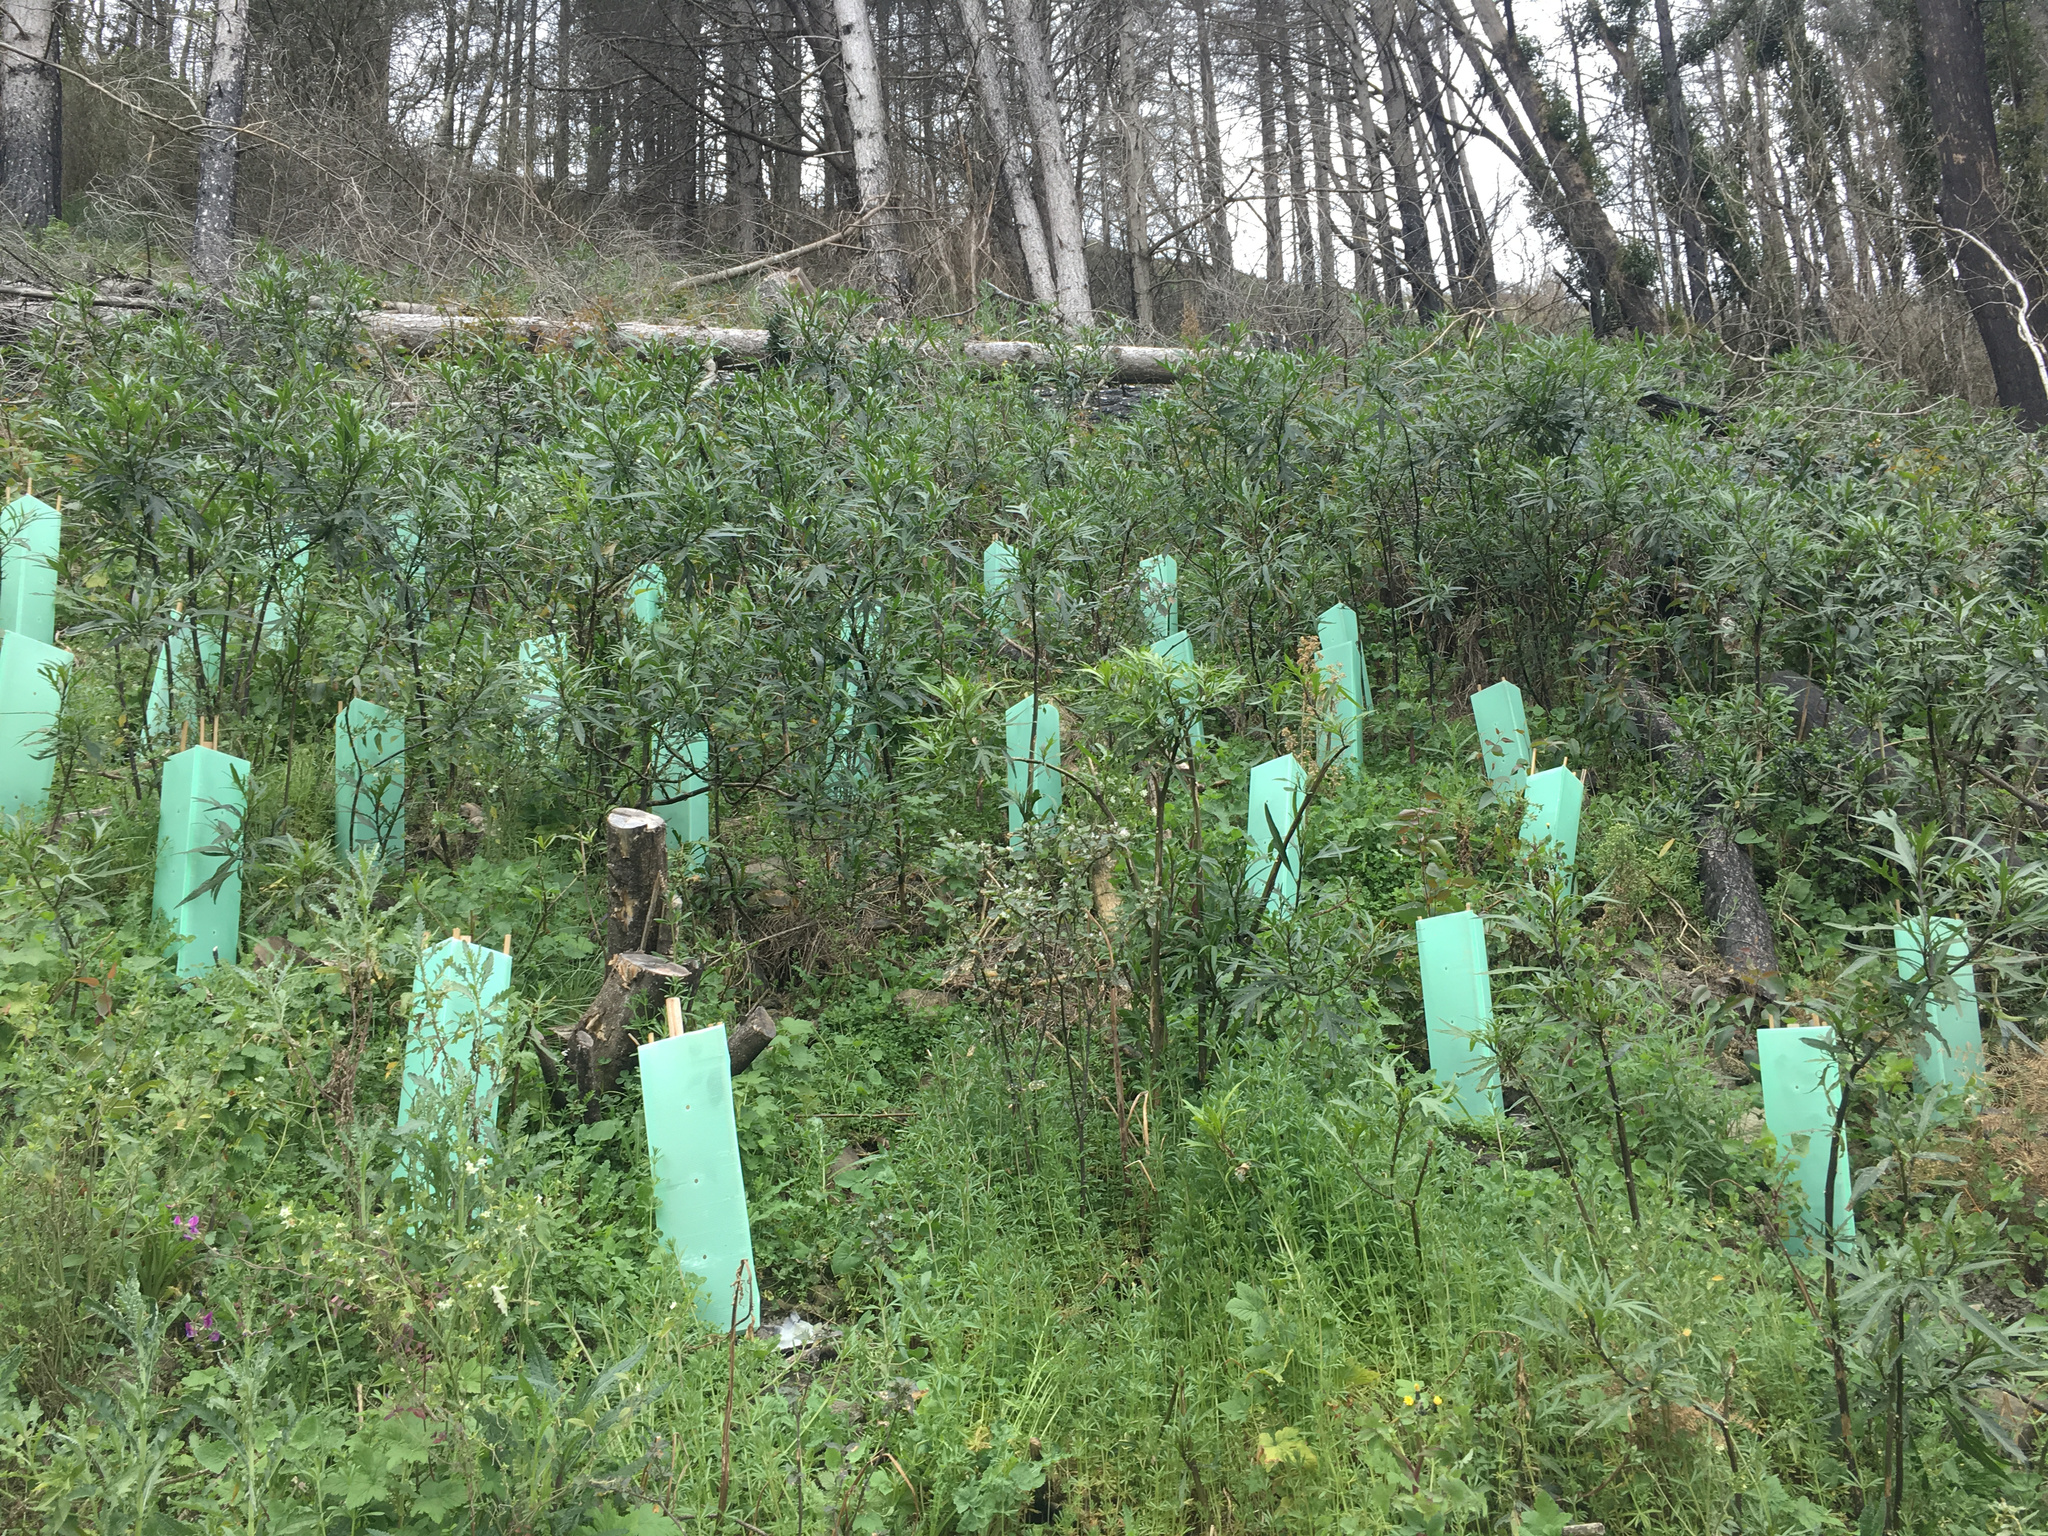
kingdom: Plantae
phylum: Tracheophyta
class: Magnoliopsida
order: Asterales
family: Asteraceae
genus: Senecio
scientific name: Senecio glomeratus
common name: Cutleaf burnweed
